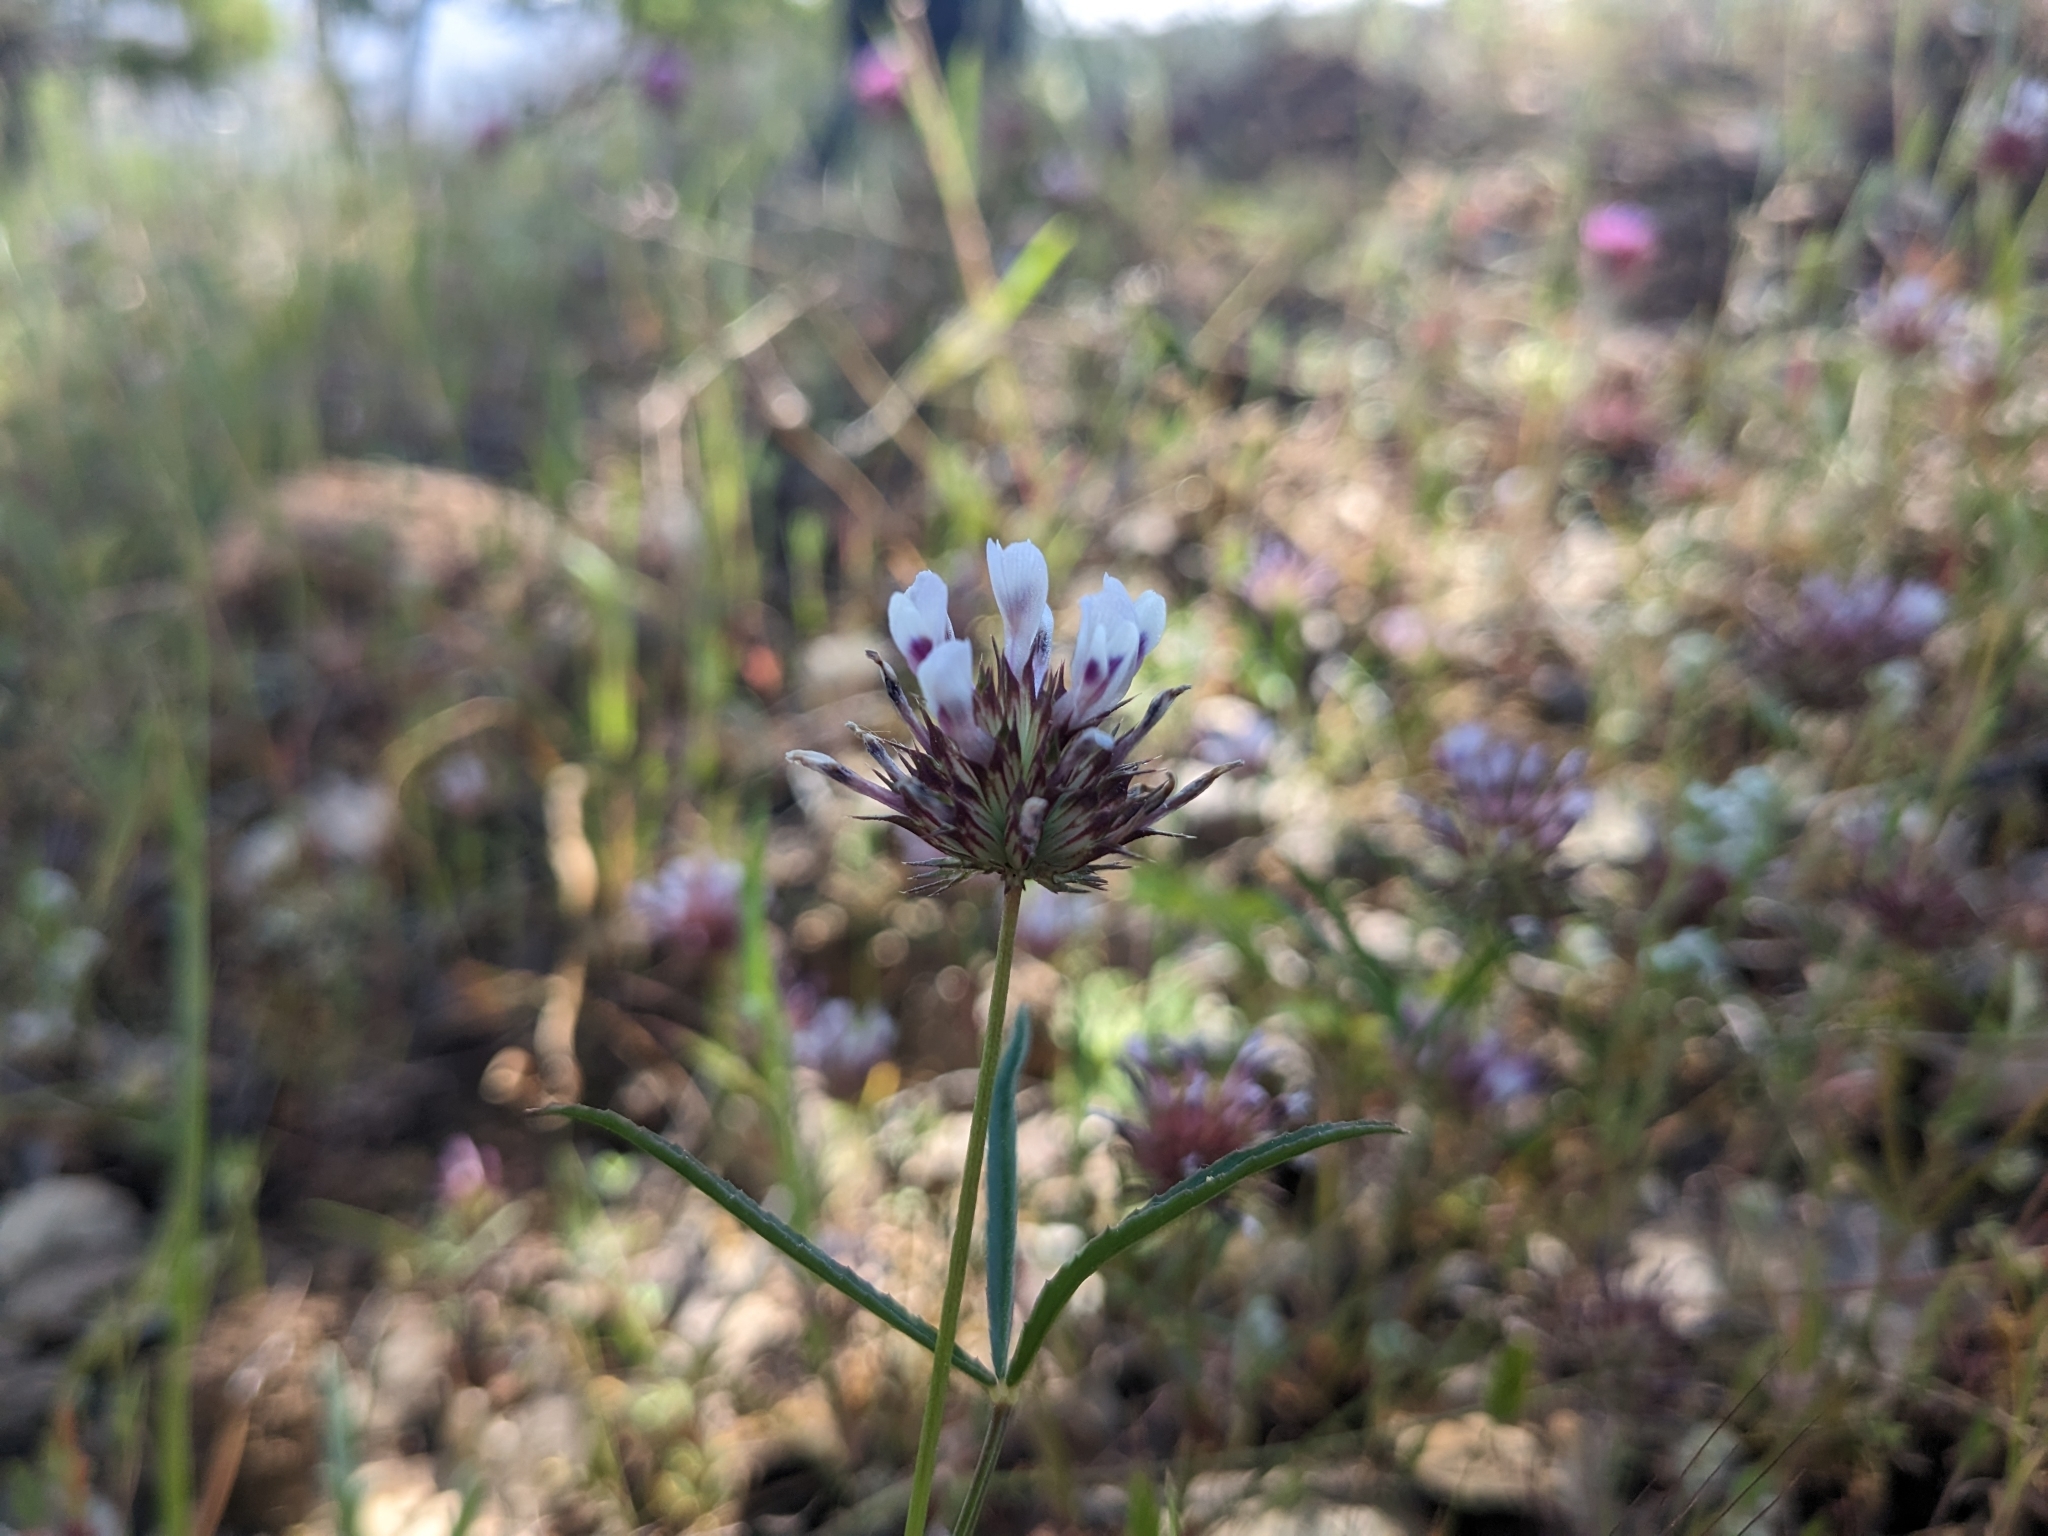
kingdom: Plantae
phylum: Tracheophyta
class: Magnoliopsida
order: Fabales
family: Fabaceae
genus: Trifolium
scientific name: Trifolium willdenovii
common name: Tomcat clover
